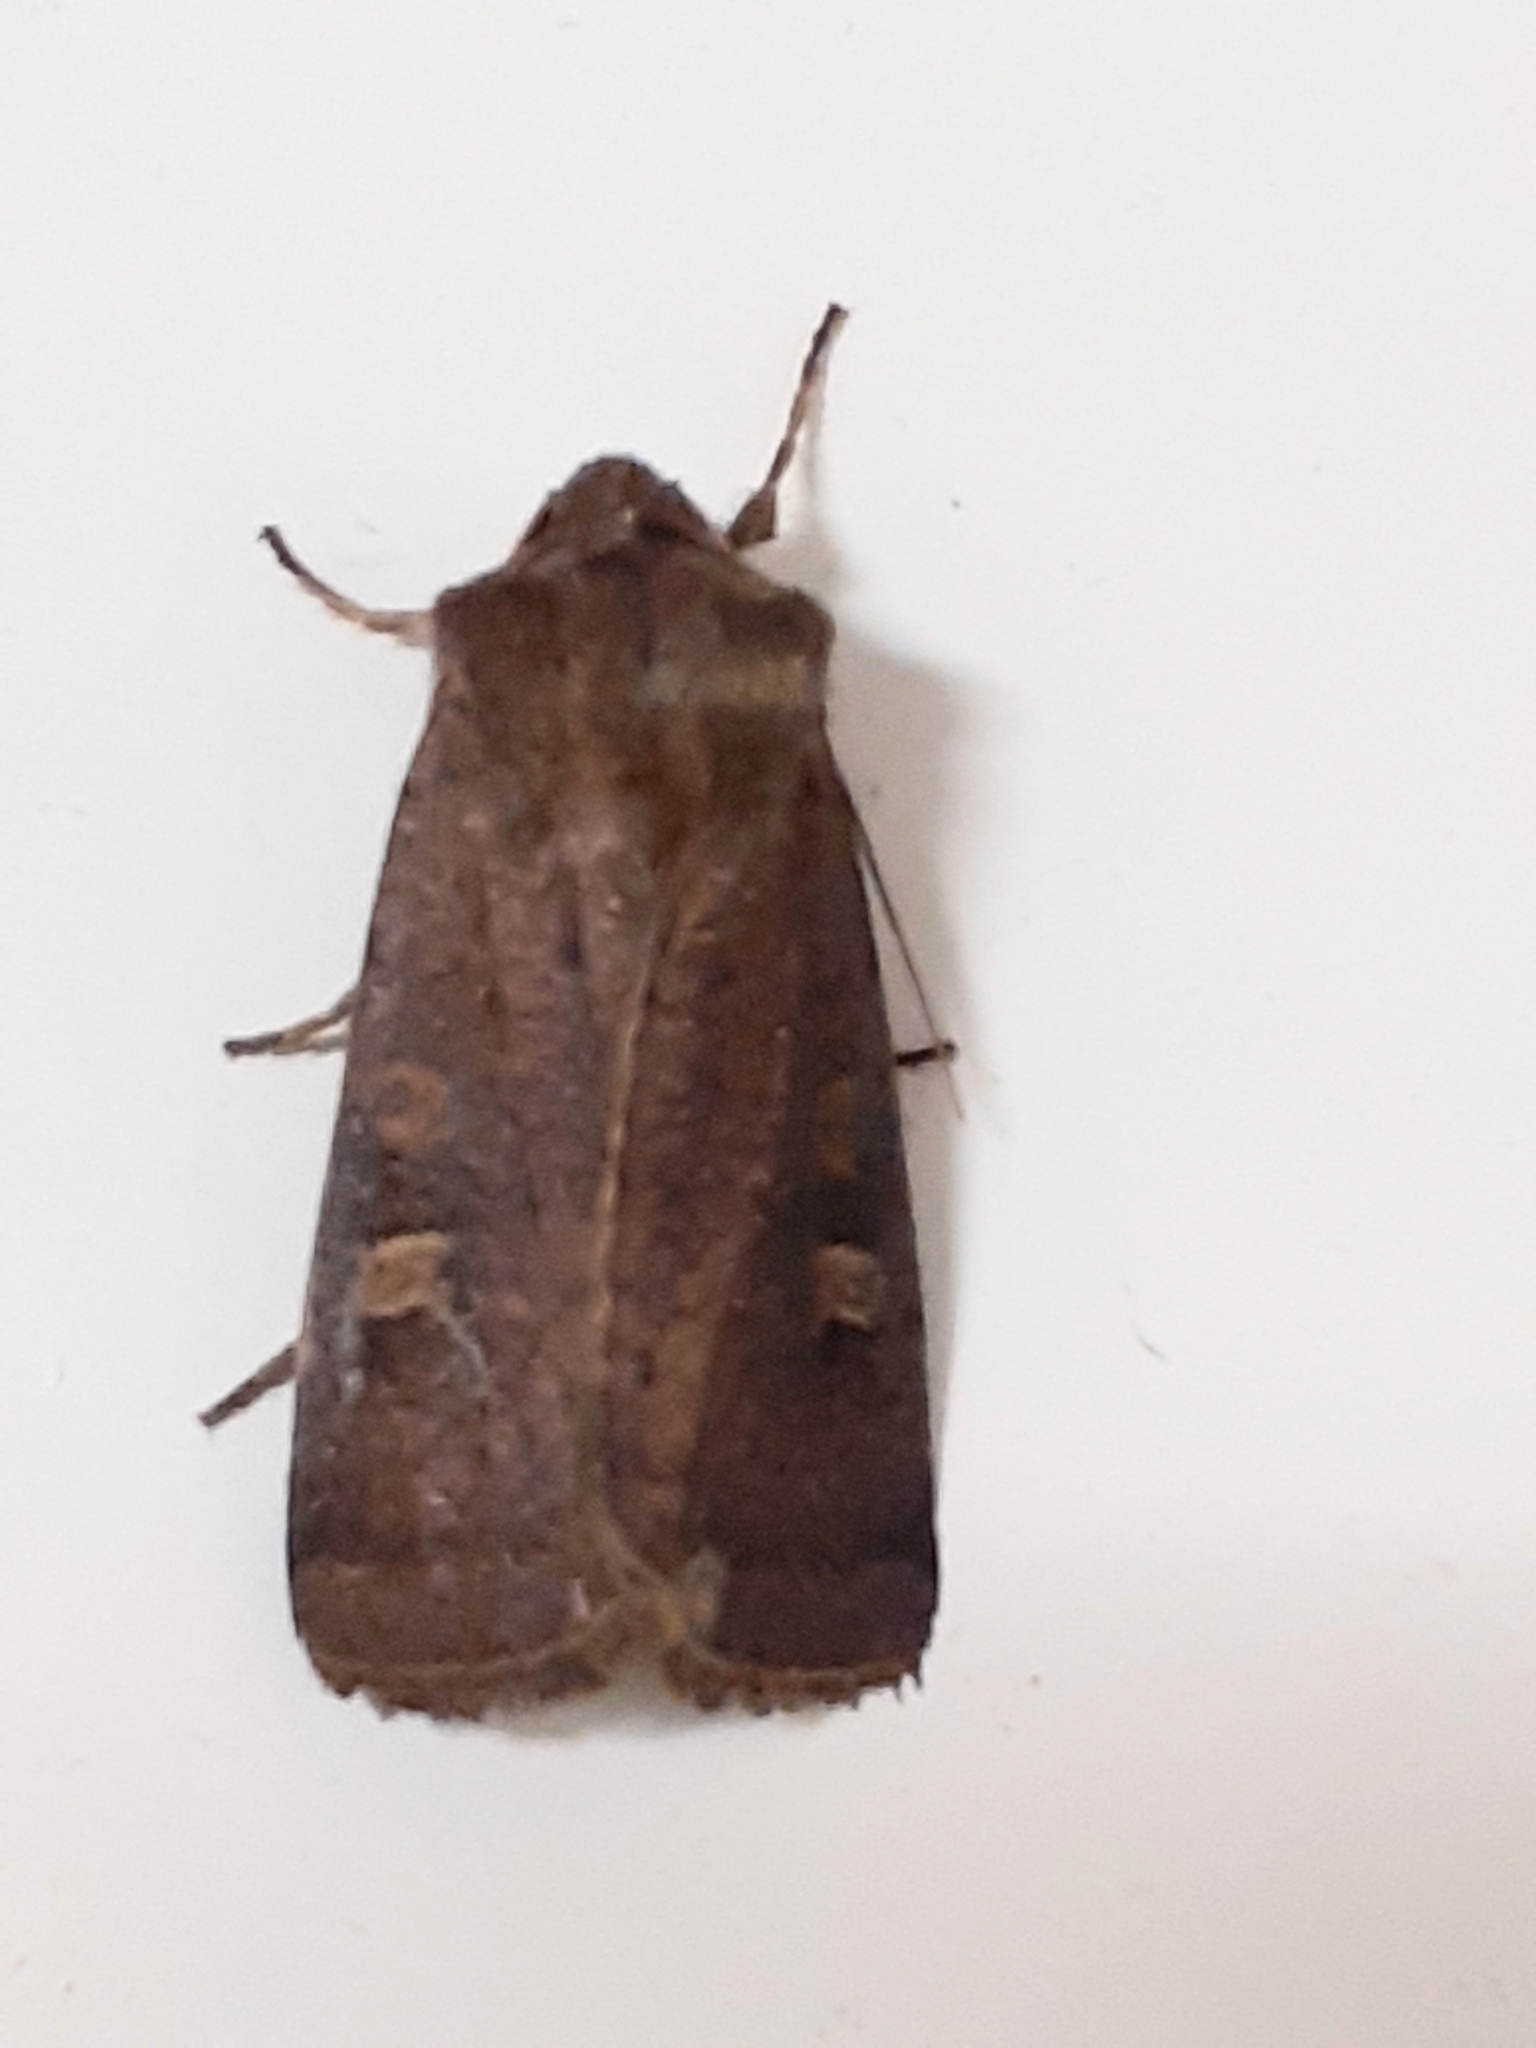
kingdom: Animalia
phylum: Arthropoda
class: Insecta
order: Lepidoptera
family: Noctuidae
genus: Xestia
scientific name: Xestia xanthographa
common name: Square-spot rustic
